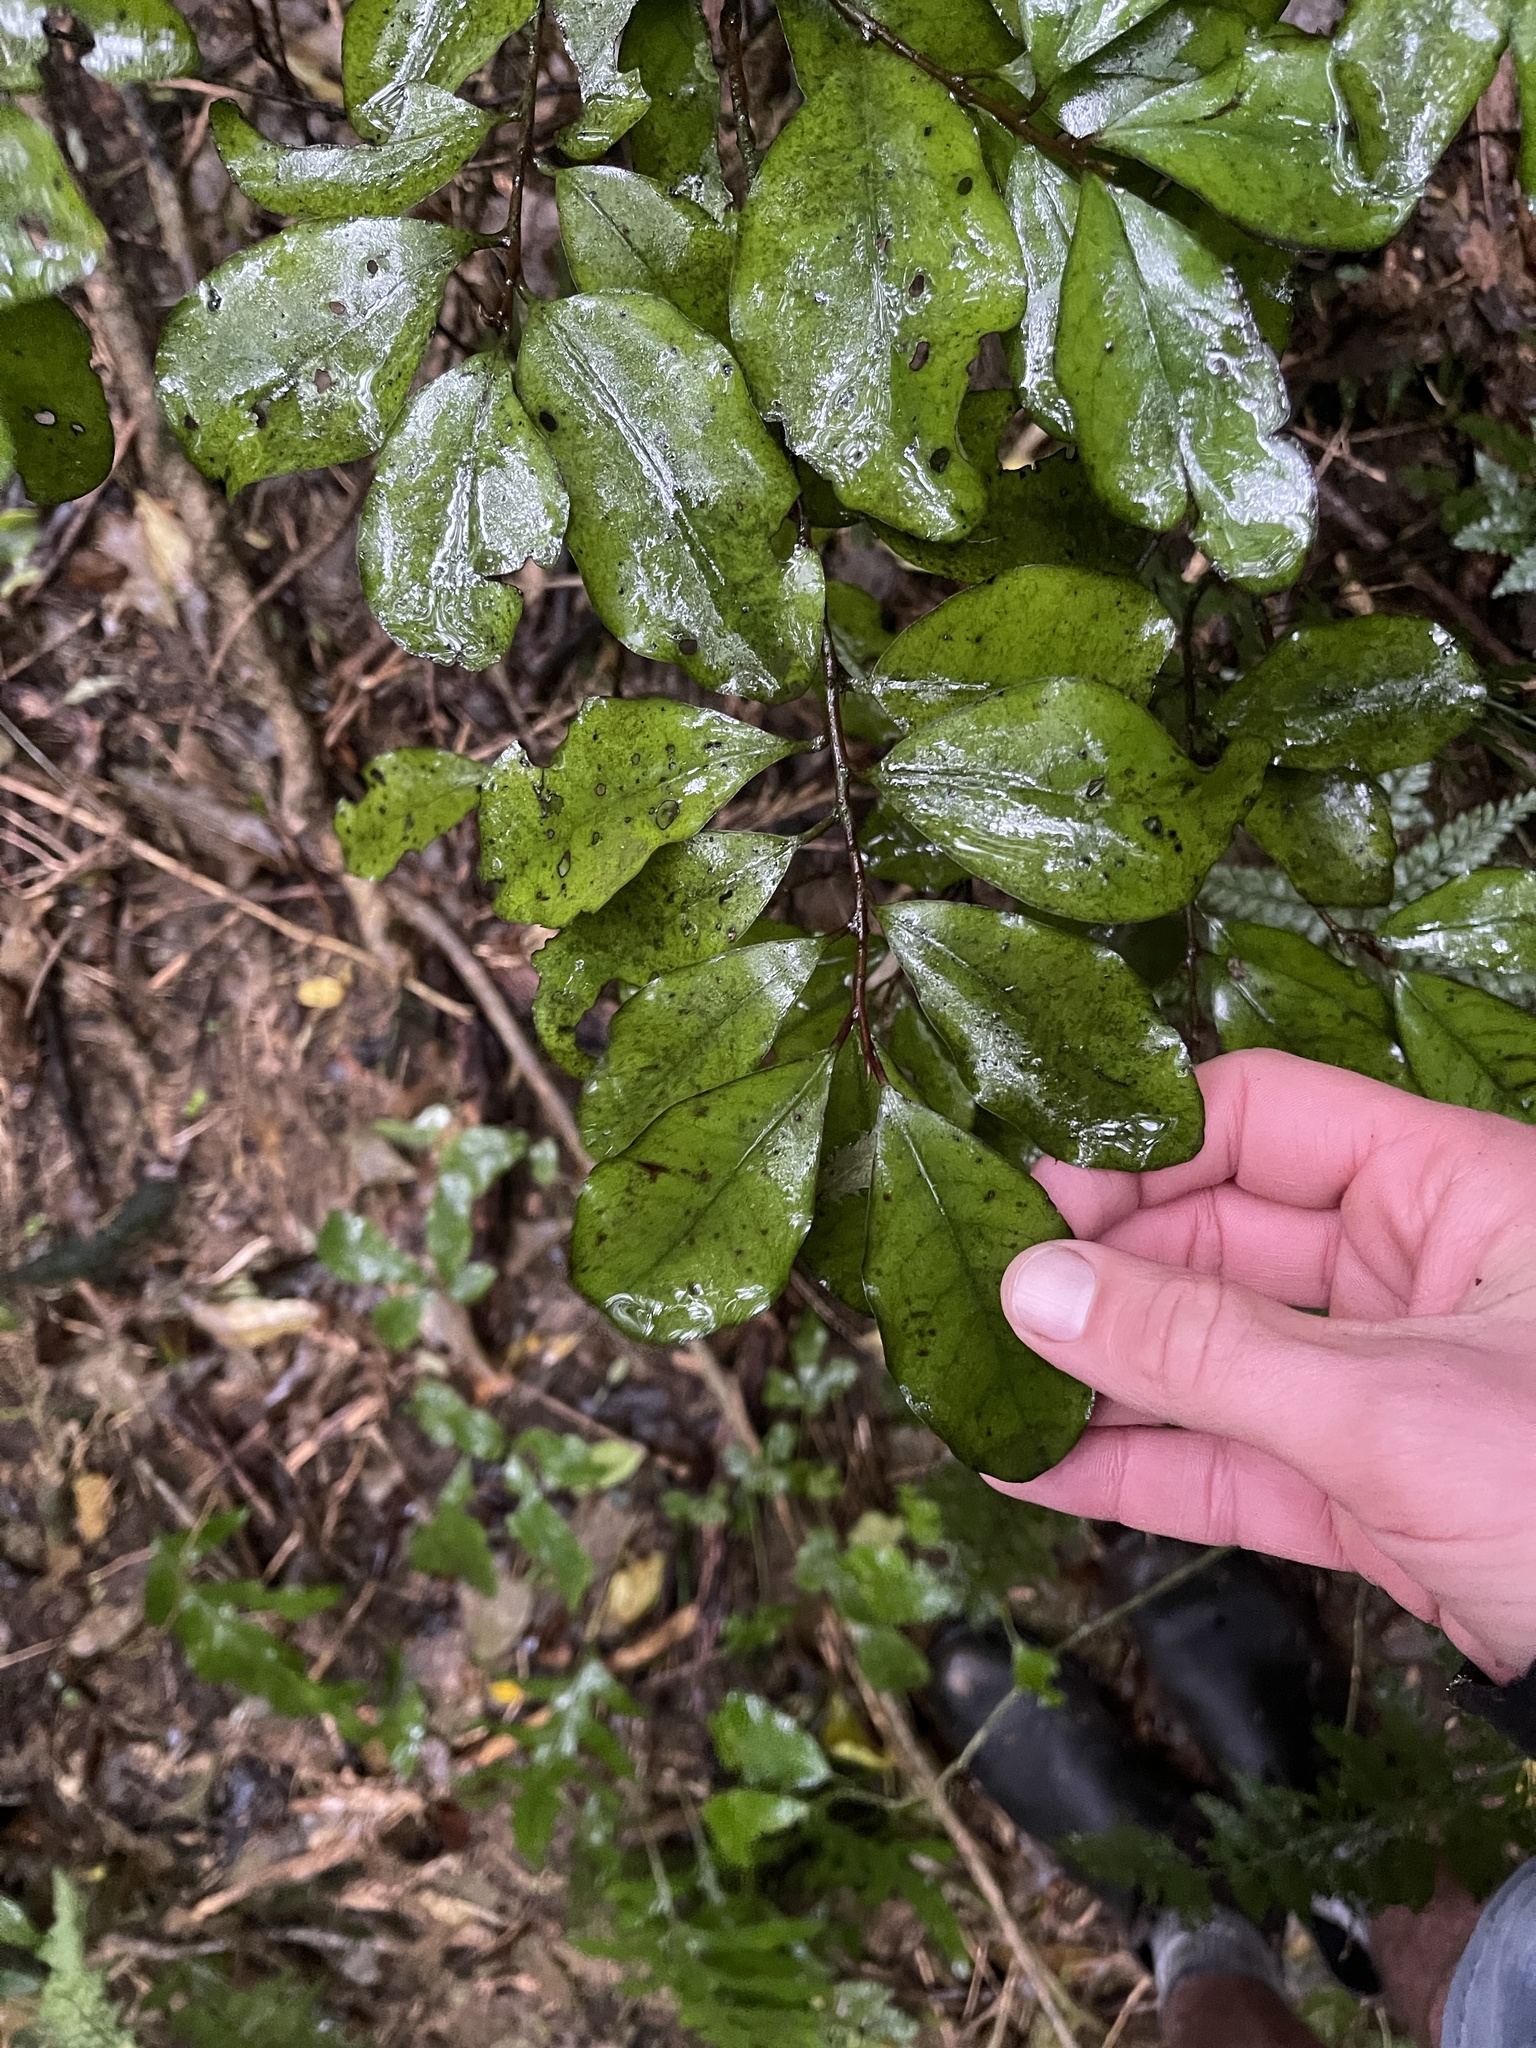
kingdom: Plantae
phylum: Tracheophyta
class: Magnoliopsida
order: Canellales
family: Winteraceae
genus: Pseudowintera
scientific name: Pseudowintera colorata
